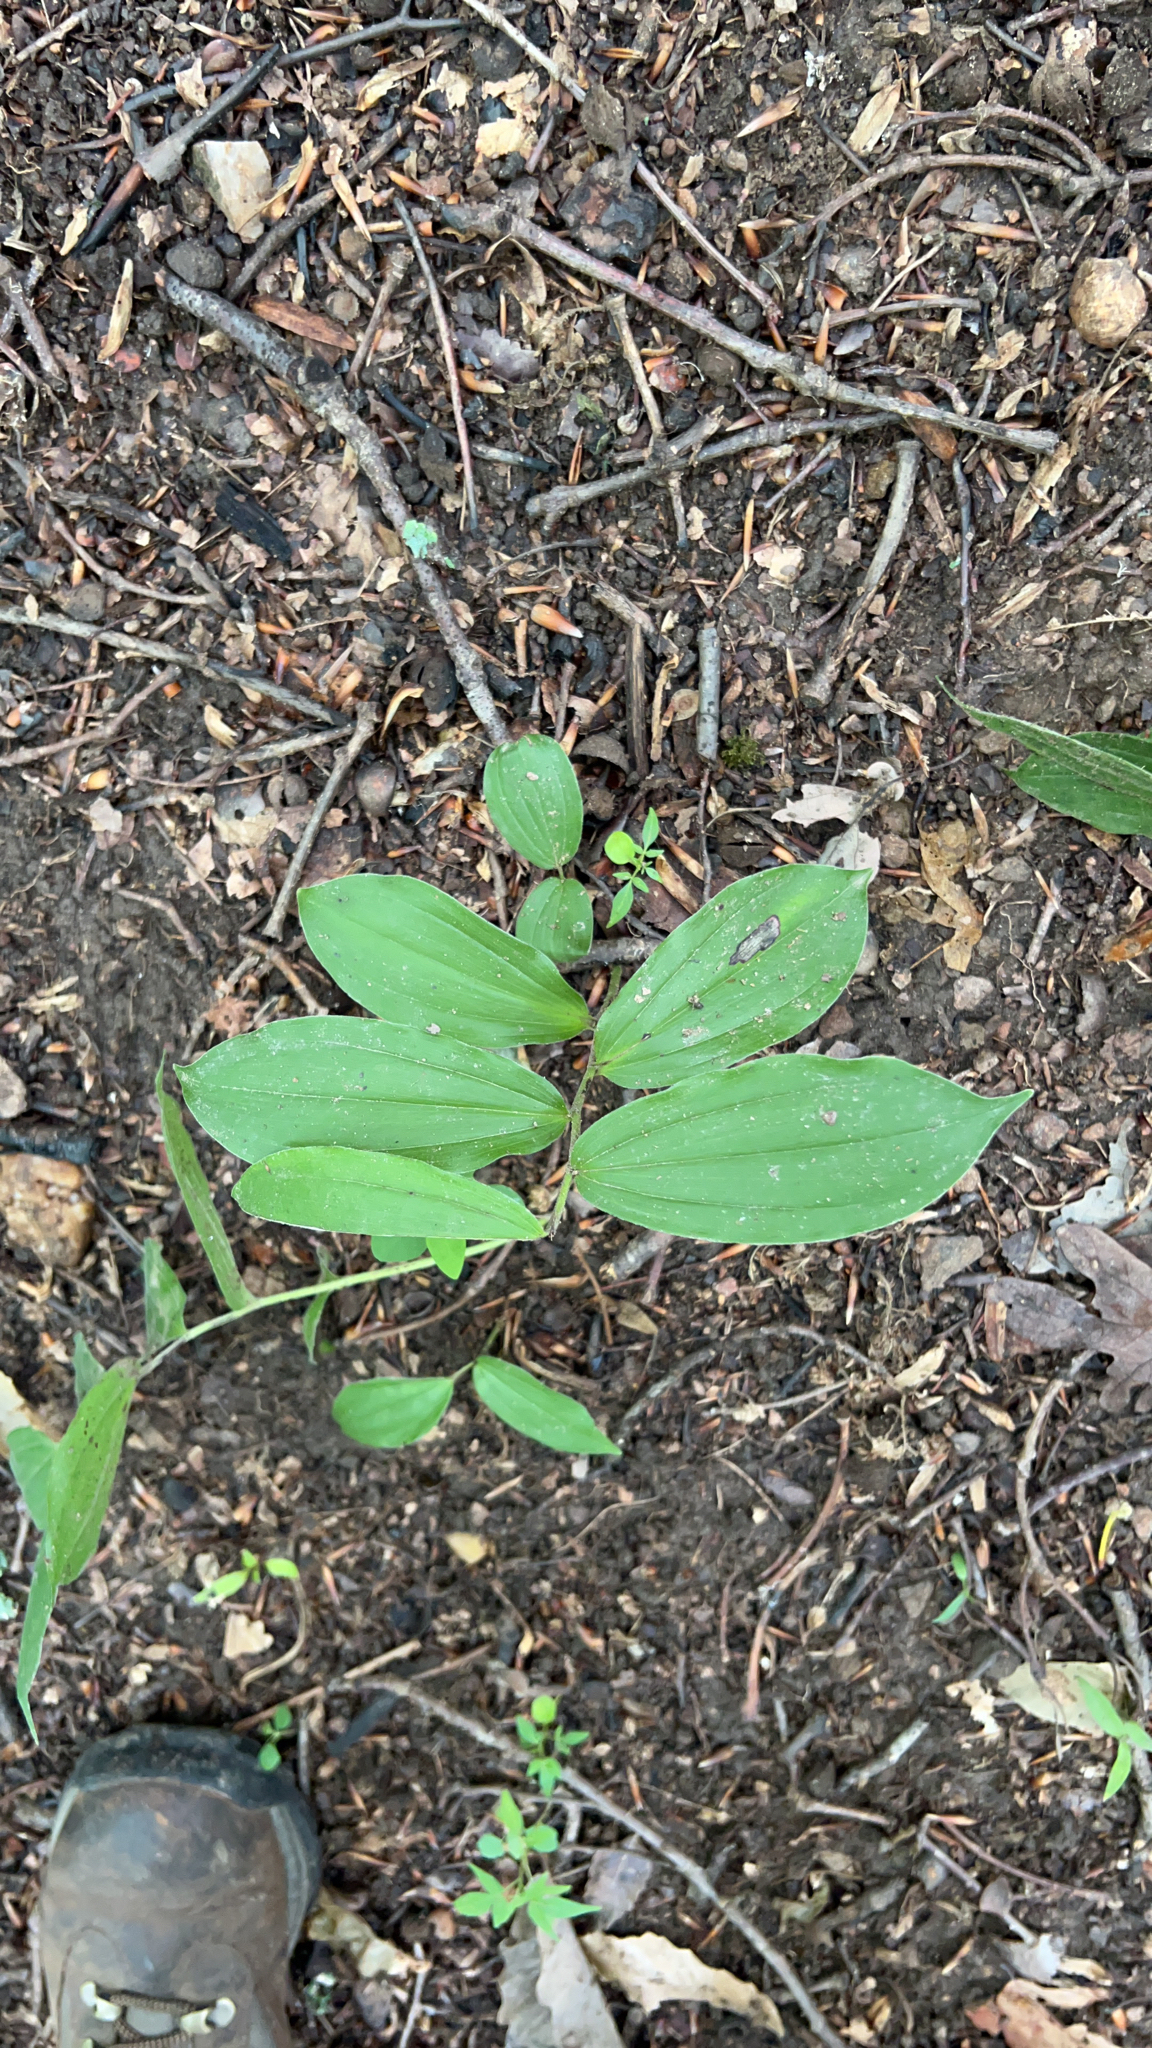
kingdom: Plantae
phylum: Tracheophyta
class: Liliopsida
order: Asparagales
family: Asparagaceae
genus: Maianthemum
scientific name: Maianthemum racemosum
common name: False spikenard
